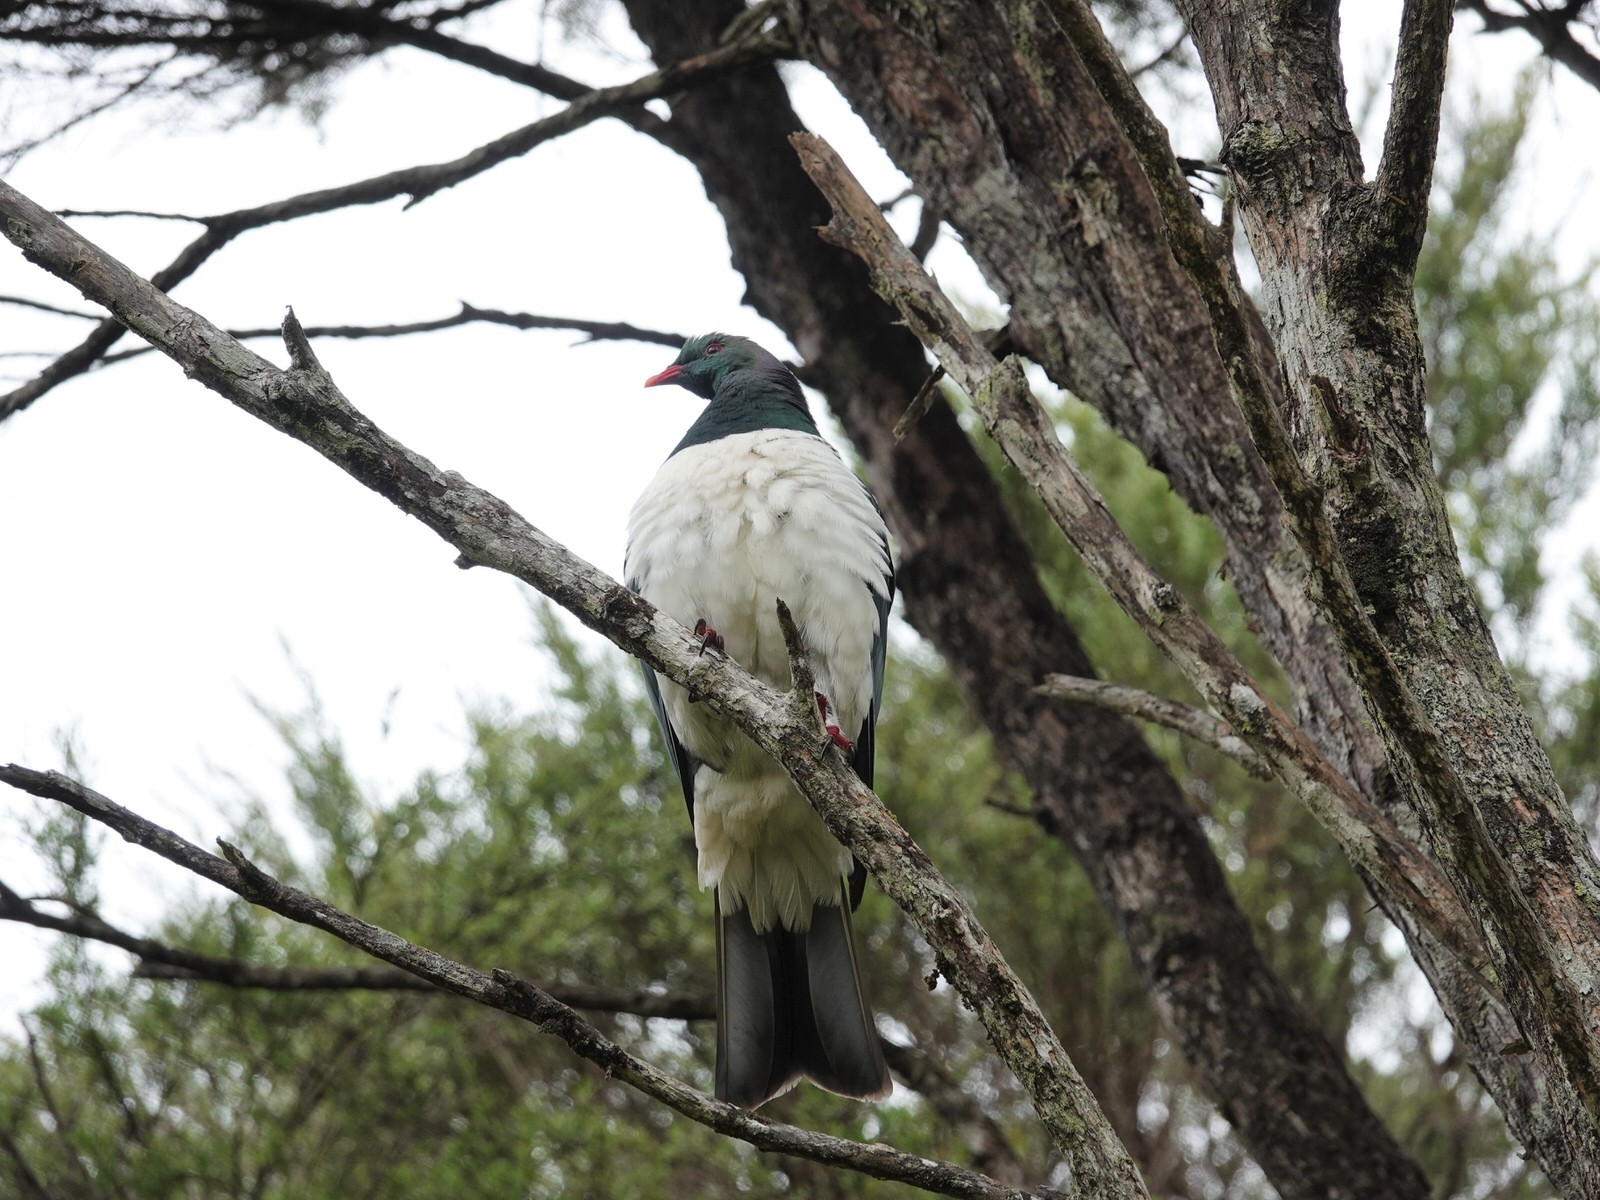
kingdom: Animalia
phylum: Chordata
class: Aves
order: Columbiformes
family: Columbidae
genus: Hemiphaga
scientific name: Hemiphaga novaeseelandiae
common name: New zealand pigeon
